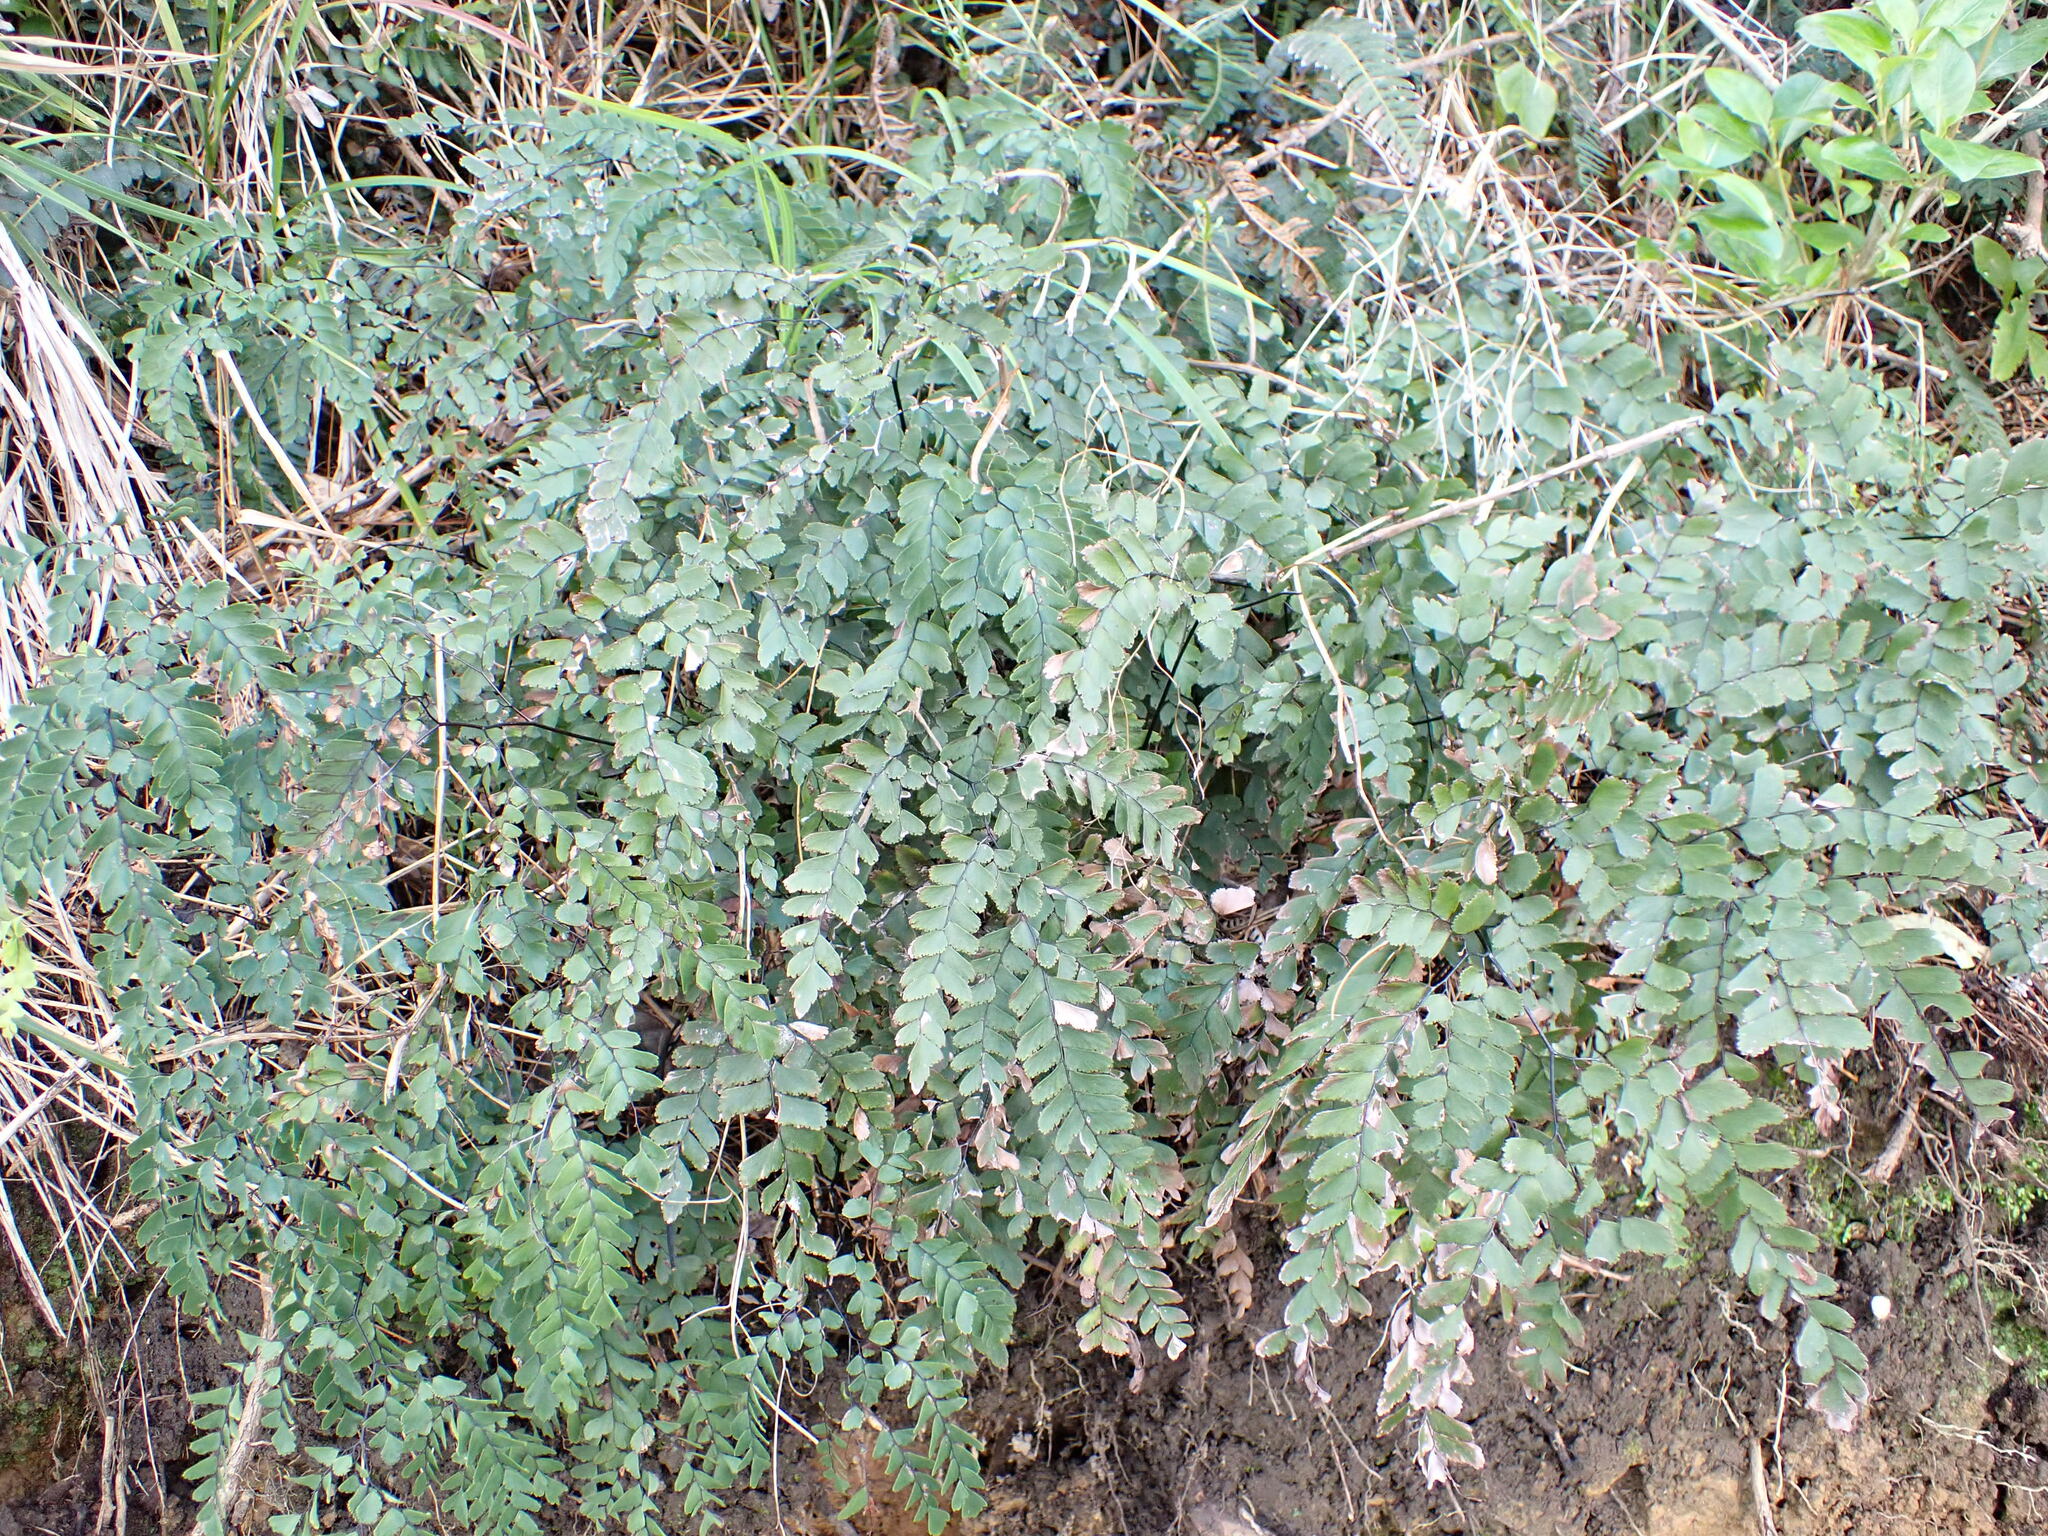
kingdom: Plantae
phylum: Tracheophyta
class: Polypodiopsida
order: Polypodiales
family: Pteridaceae
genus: Adiantum
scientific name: Adiantum cunninghamii
